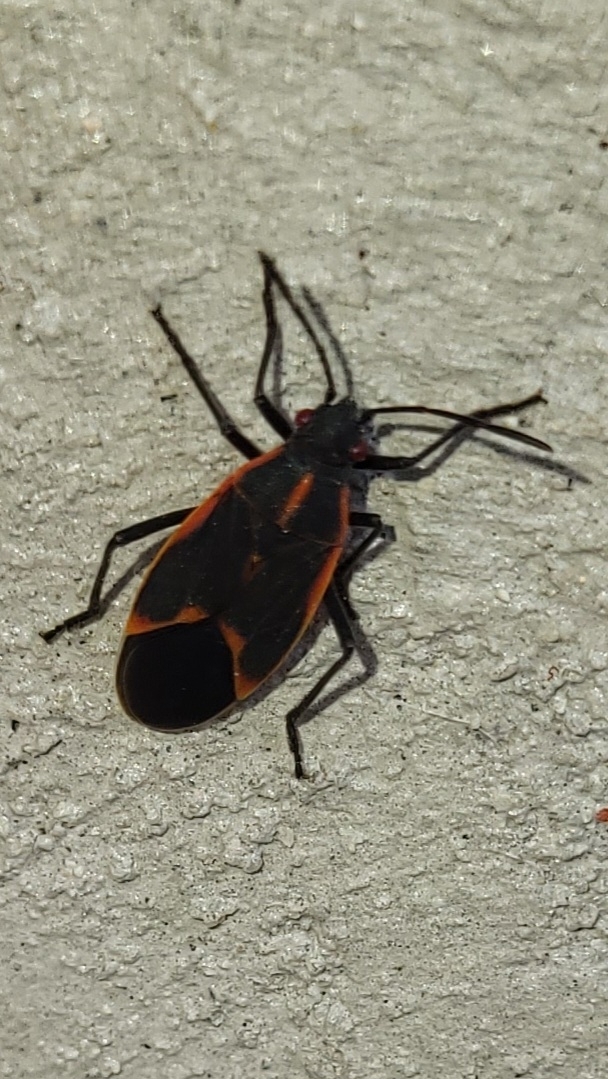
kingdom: Animalia
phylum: Arthropoda
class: Insecta
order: Hemiptera
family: Rhopalidae
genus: Boisea
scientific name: Boisea trivittata
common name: Boxelder bug
